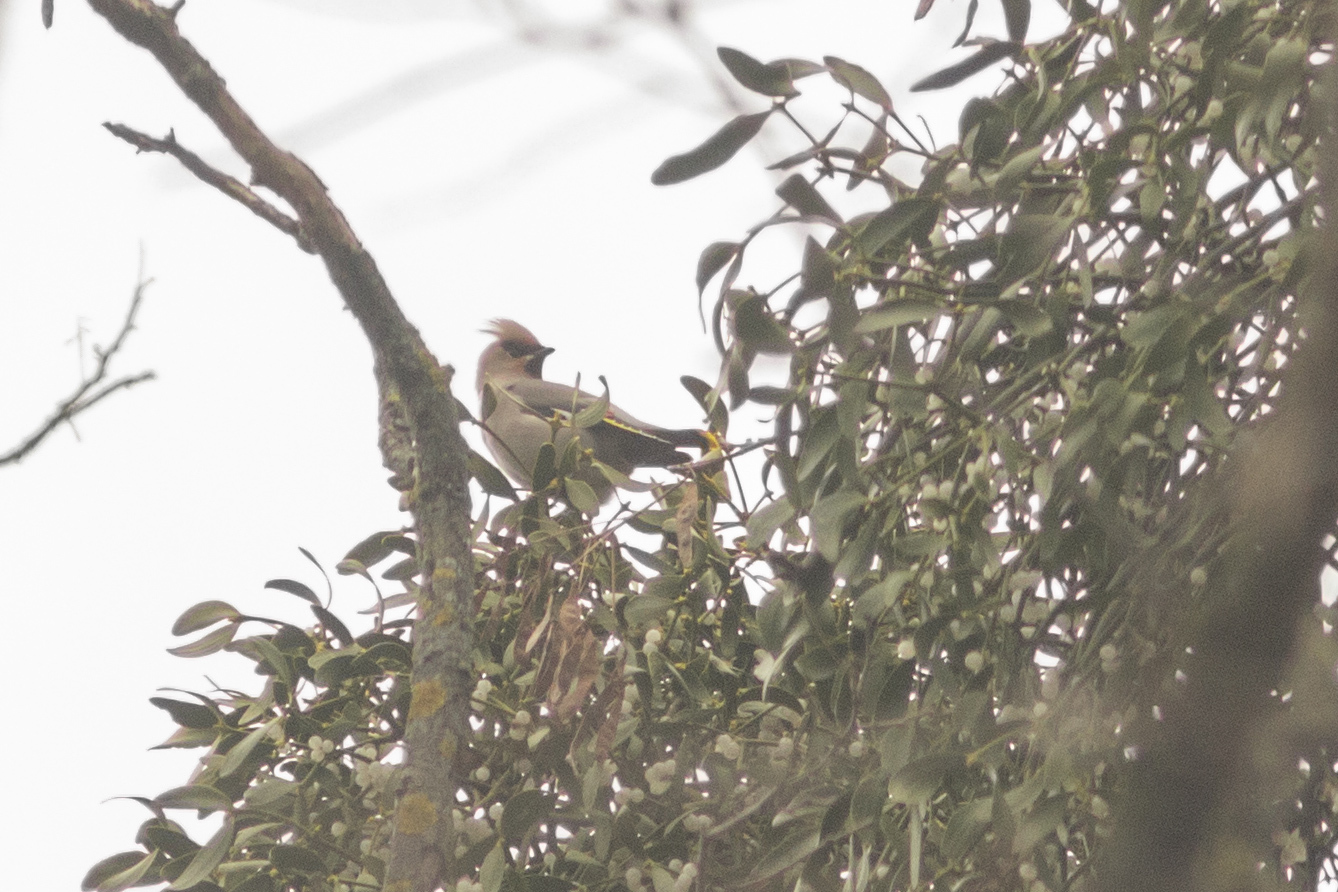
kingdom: Animalia
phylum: Chordata
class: Aves
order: Passeriformes
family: Bombycillidae
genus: Bombycilla
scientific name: Bombycilla garrulus
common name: Bohemian waxwing
